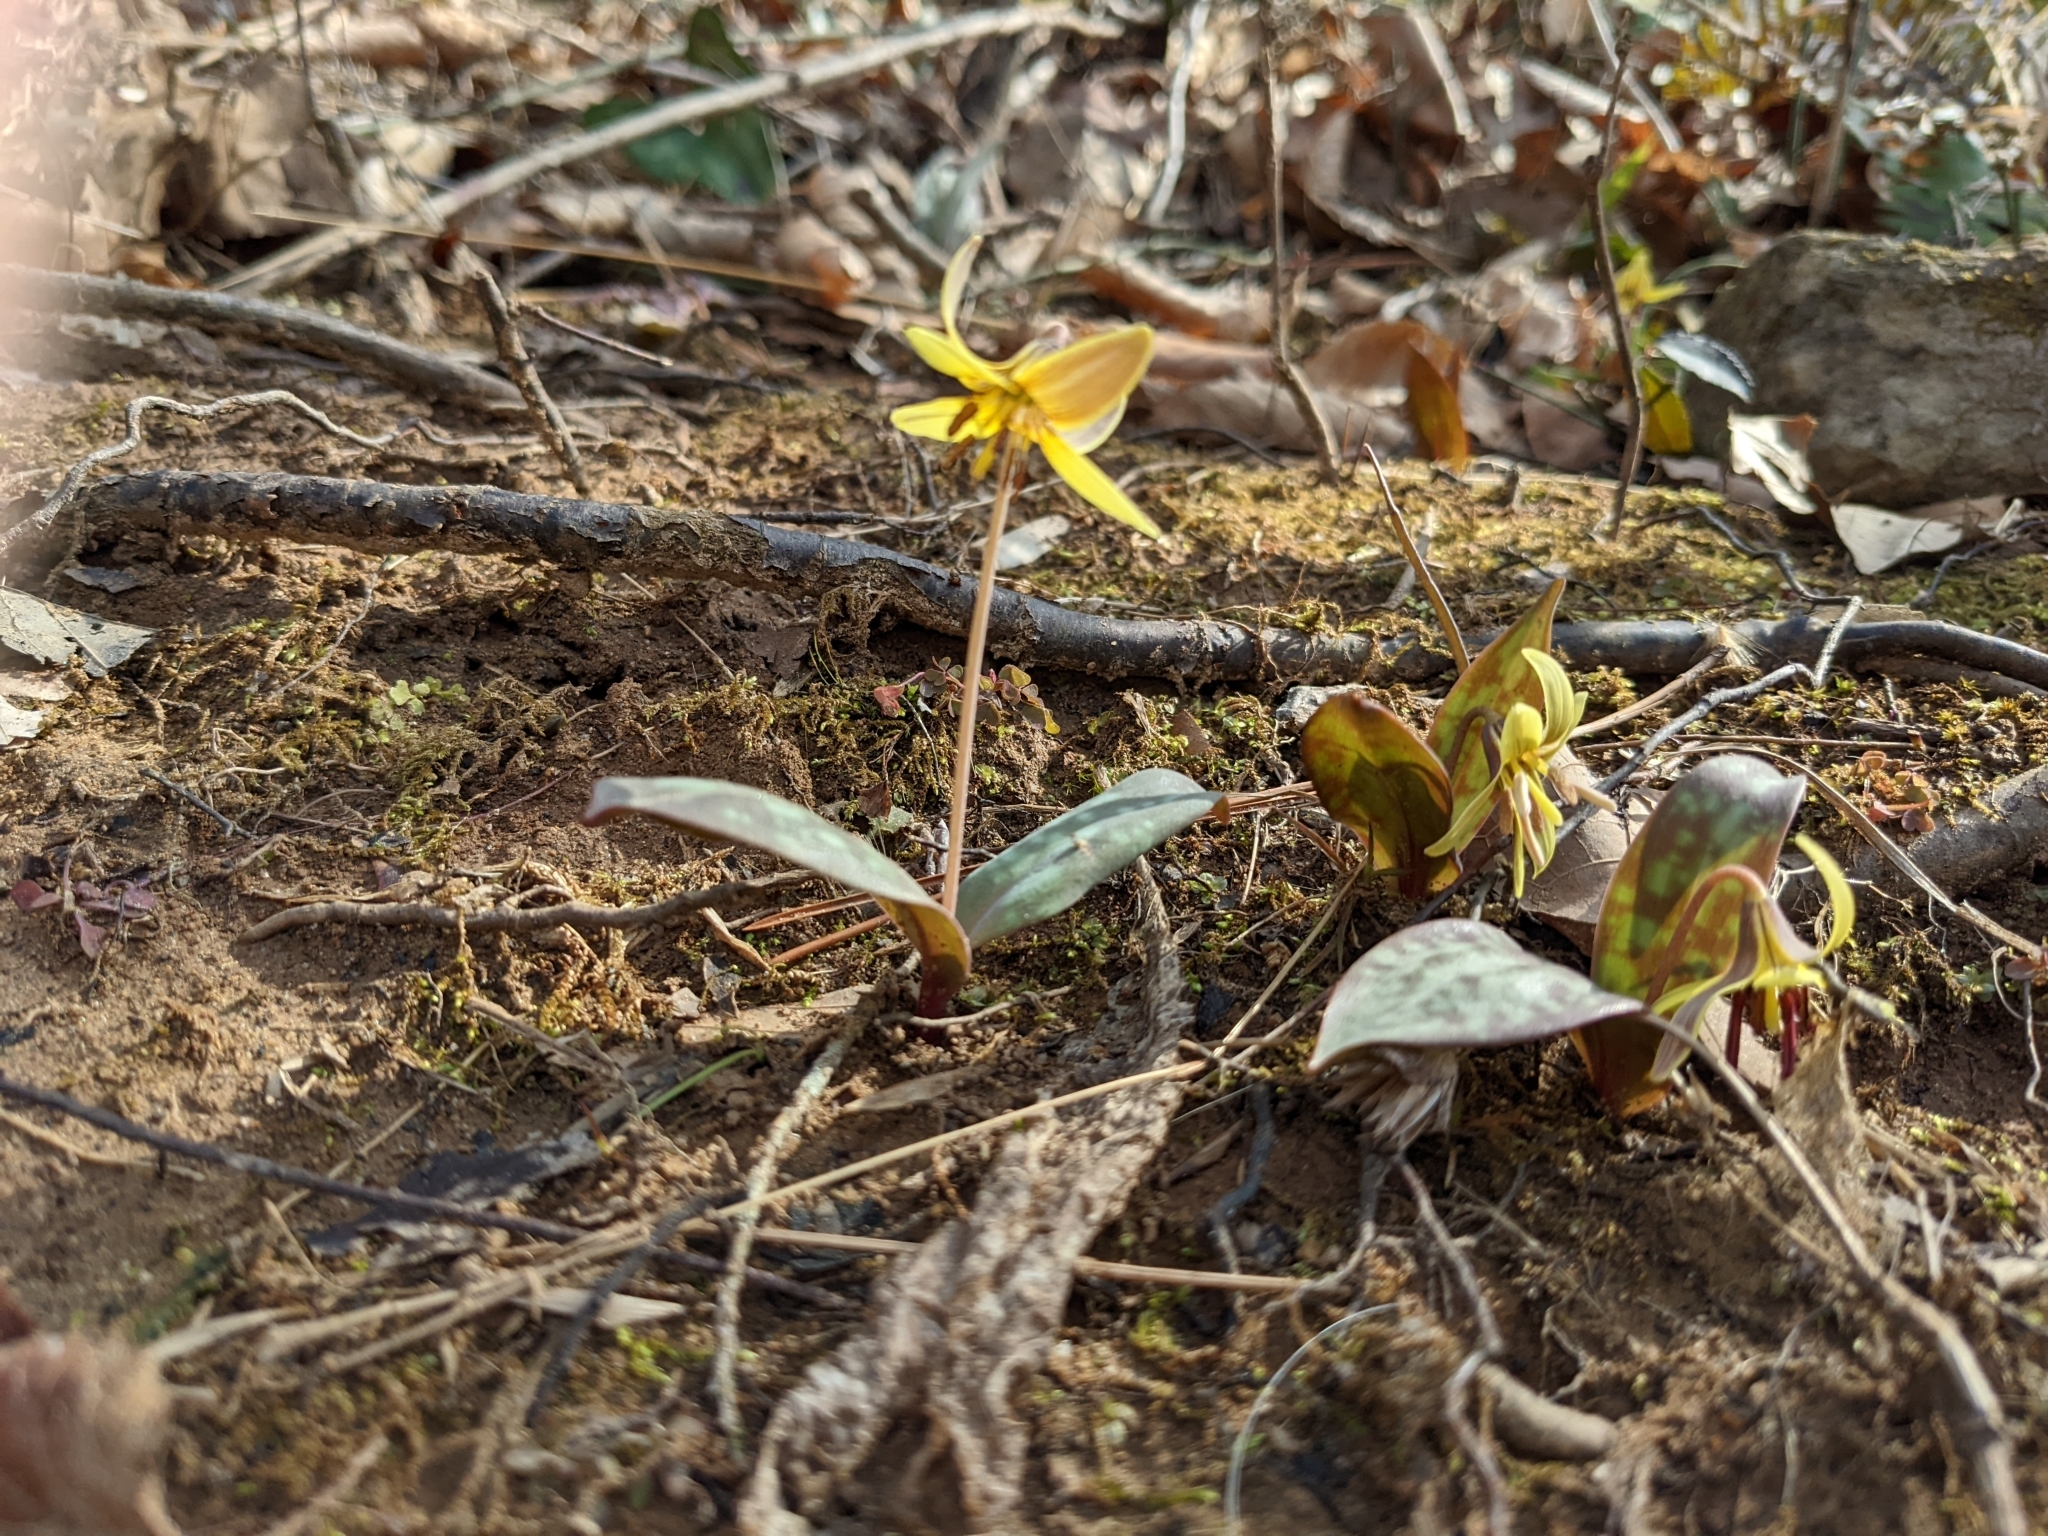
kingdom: Plantae
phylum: Tracheophyta
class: Liliopsida
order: Liliales
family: Liliaceae
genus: Erythronium
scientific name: Erythronium umbilicatum
